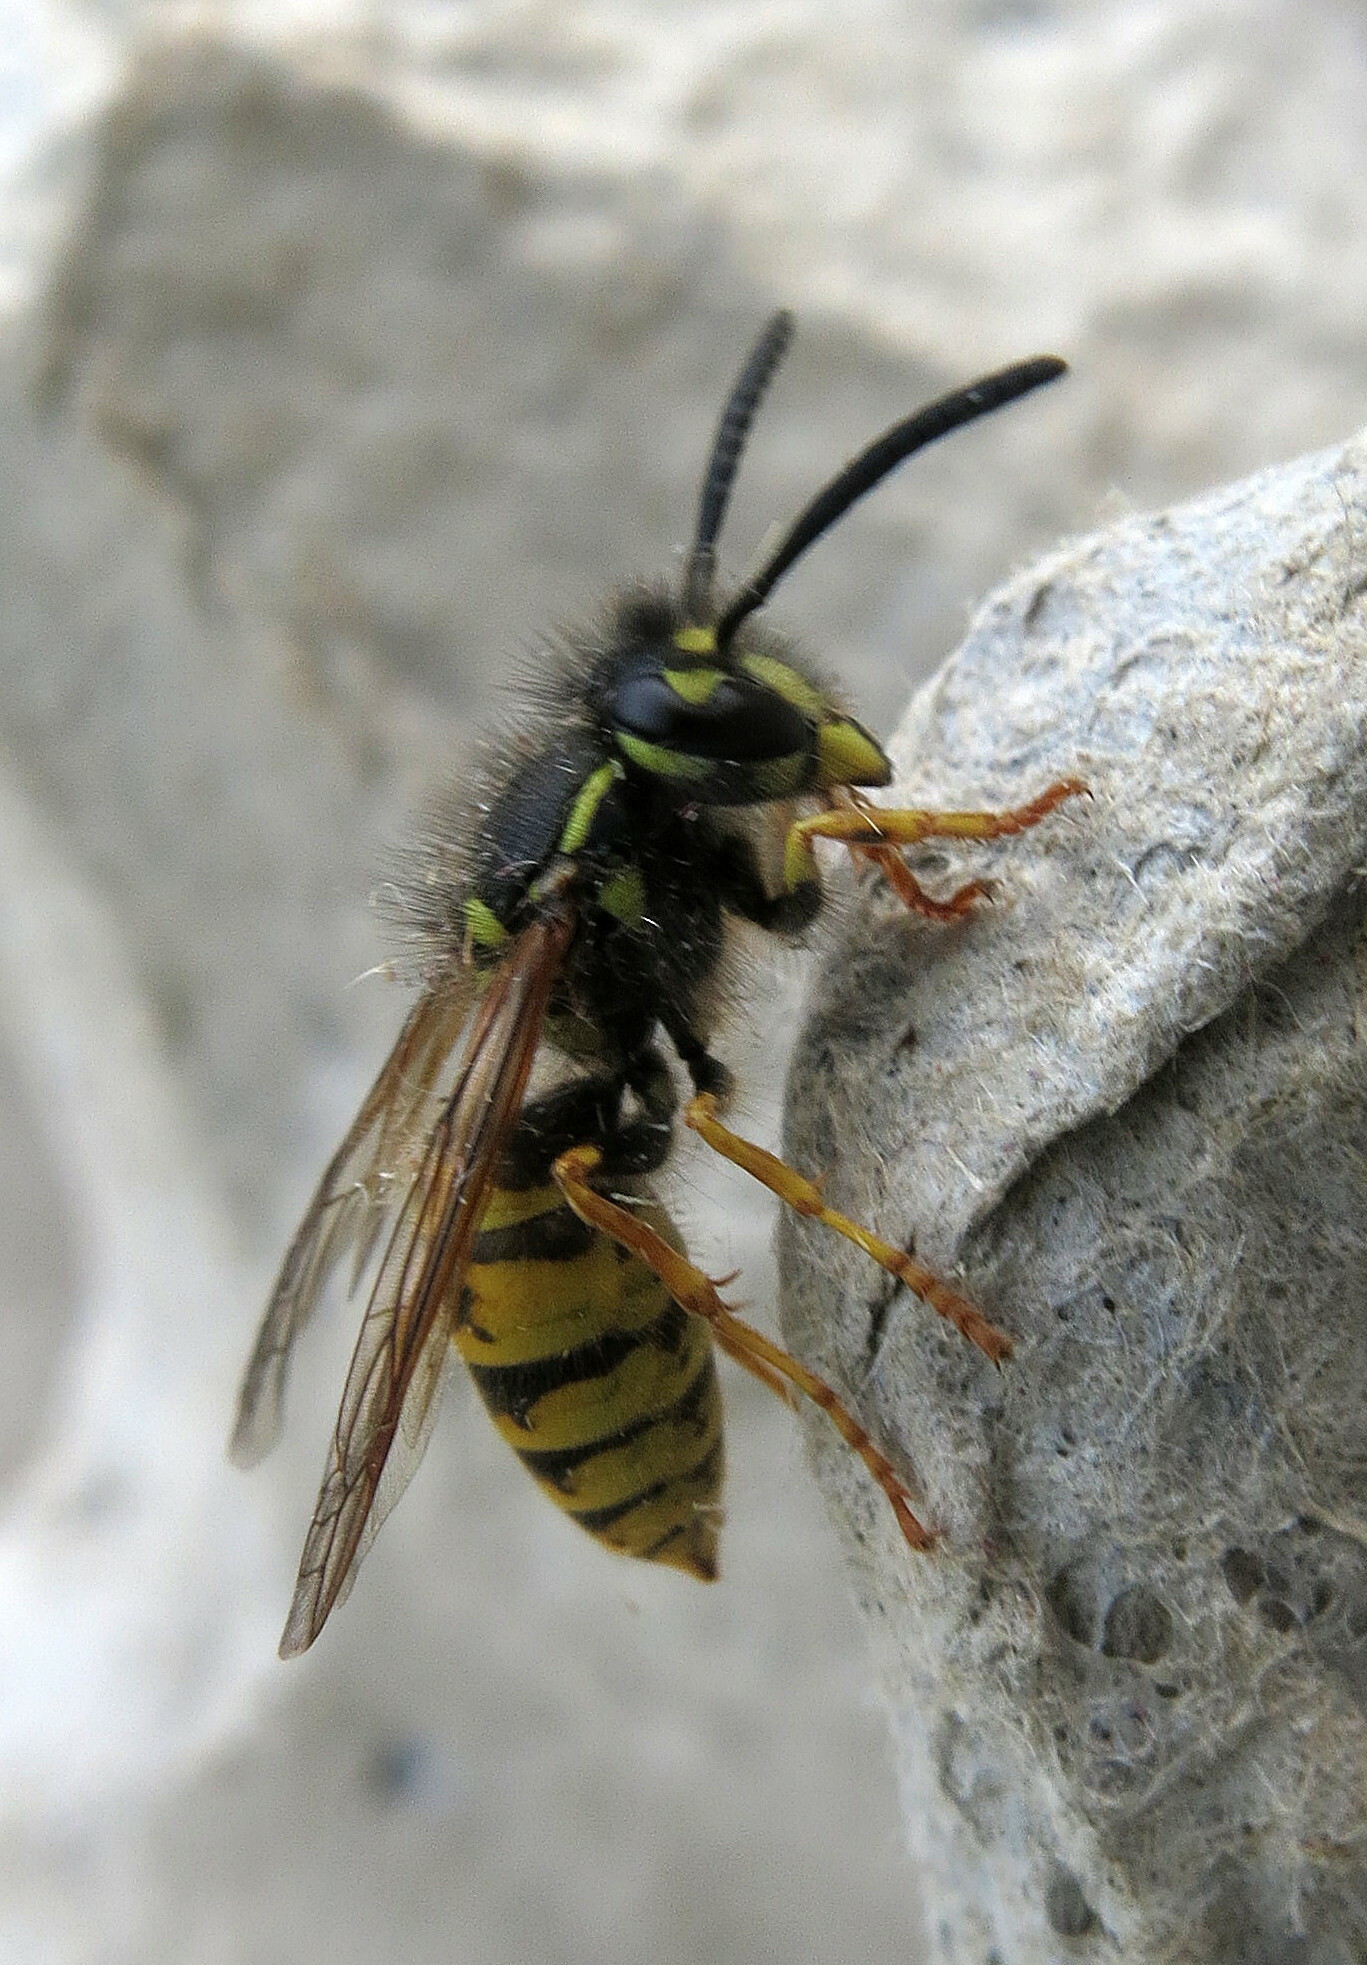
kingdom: Animalia
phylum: Arthropoda
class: Insecta
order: Hymenoptera
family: Vespidae
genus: Vespula
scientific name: Vespula vulgaris
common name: Common wasp
